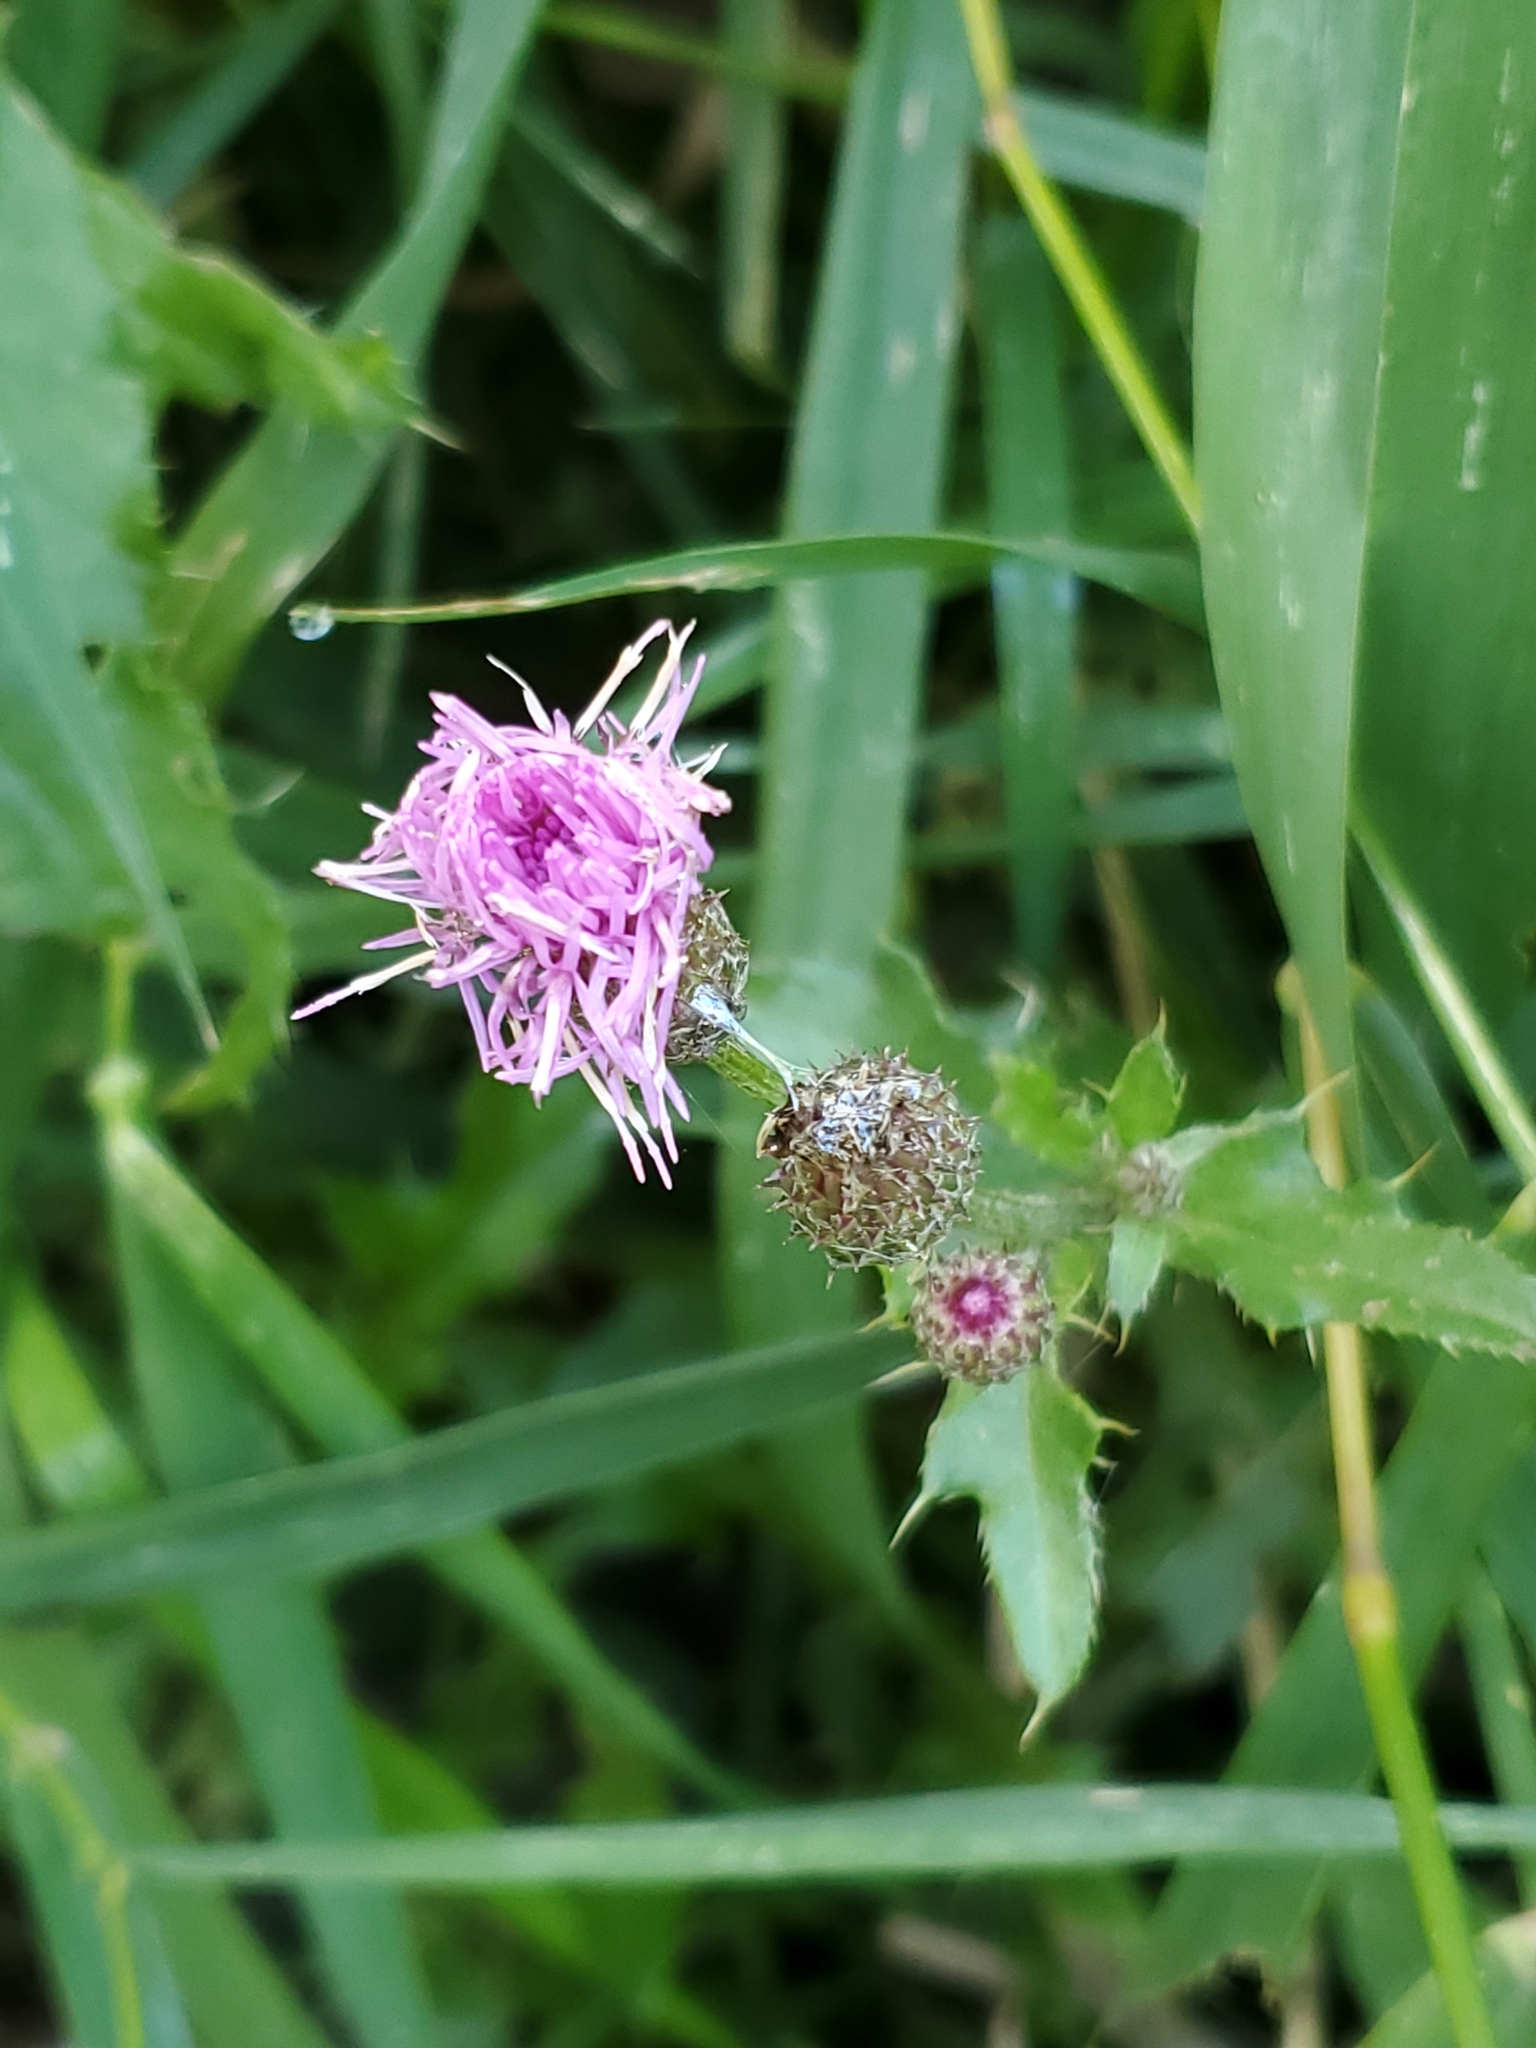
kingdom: Plantae
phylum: Tracheophyta
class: Magnoliopsida
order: Asterales
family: Asteraceae
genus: Cirsium
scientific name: Cirsium arvense
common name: Creeping thistle
